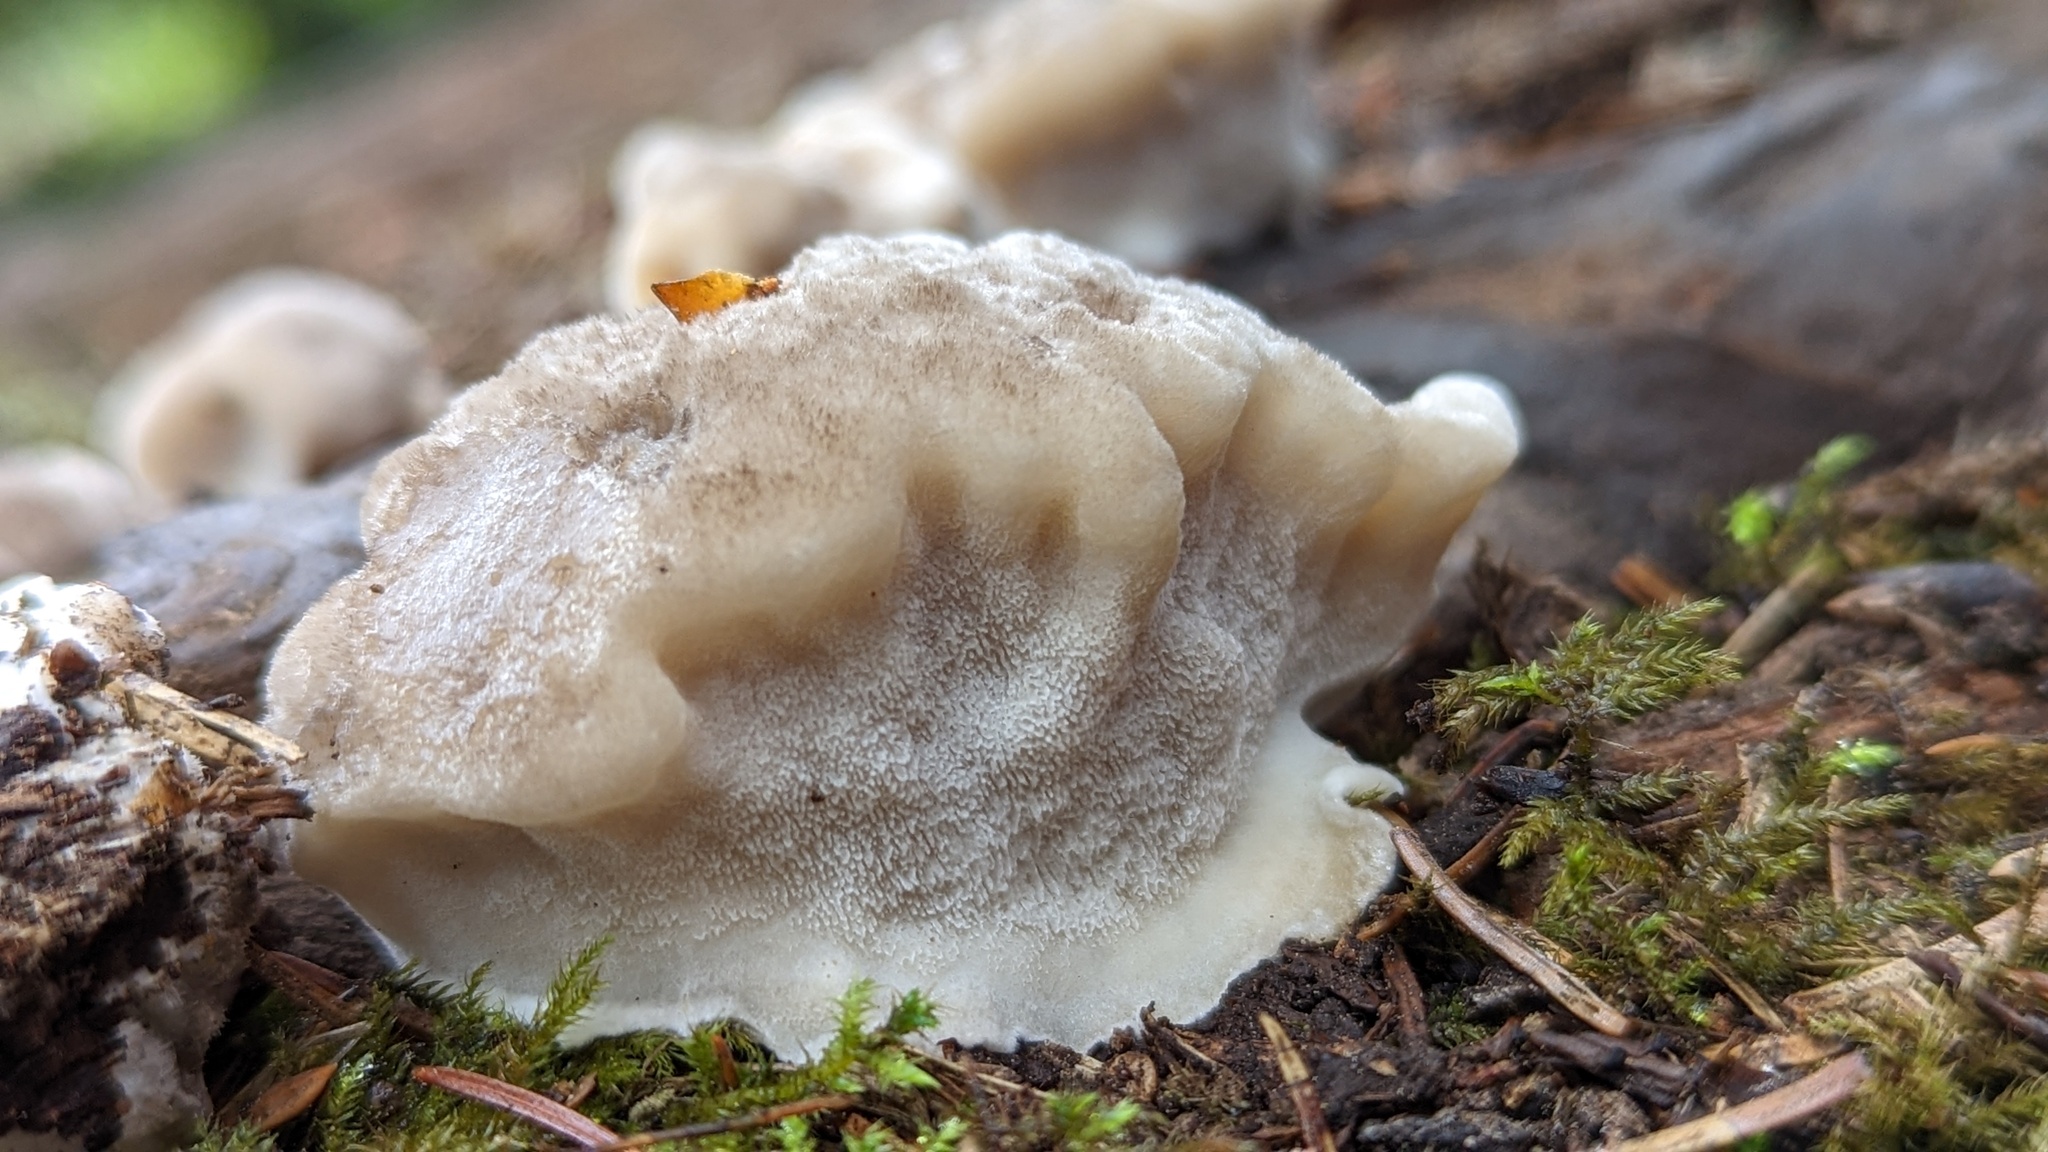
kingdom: Fungi
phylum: Basidiomycota
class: Agaricomycetes
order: Polyporales
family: Dacryobolaceae
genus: Postia
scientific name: Postia ptychogaster
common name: Powderpuff bracket
